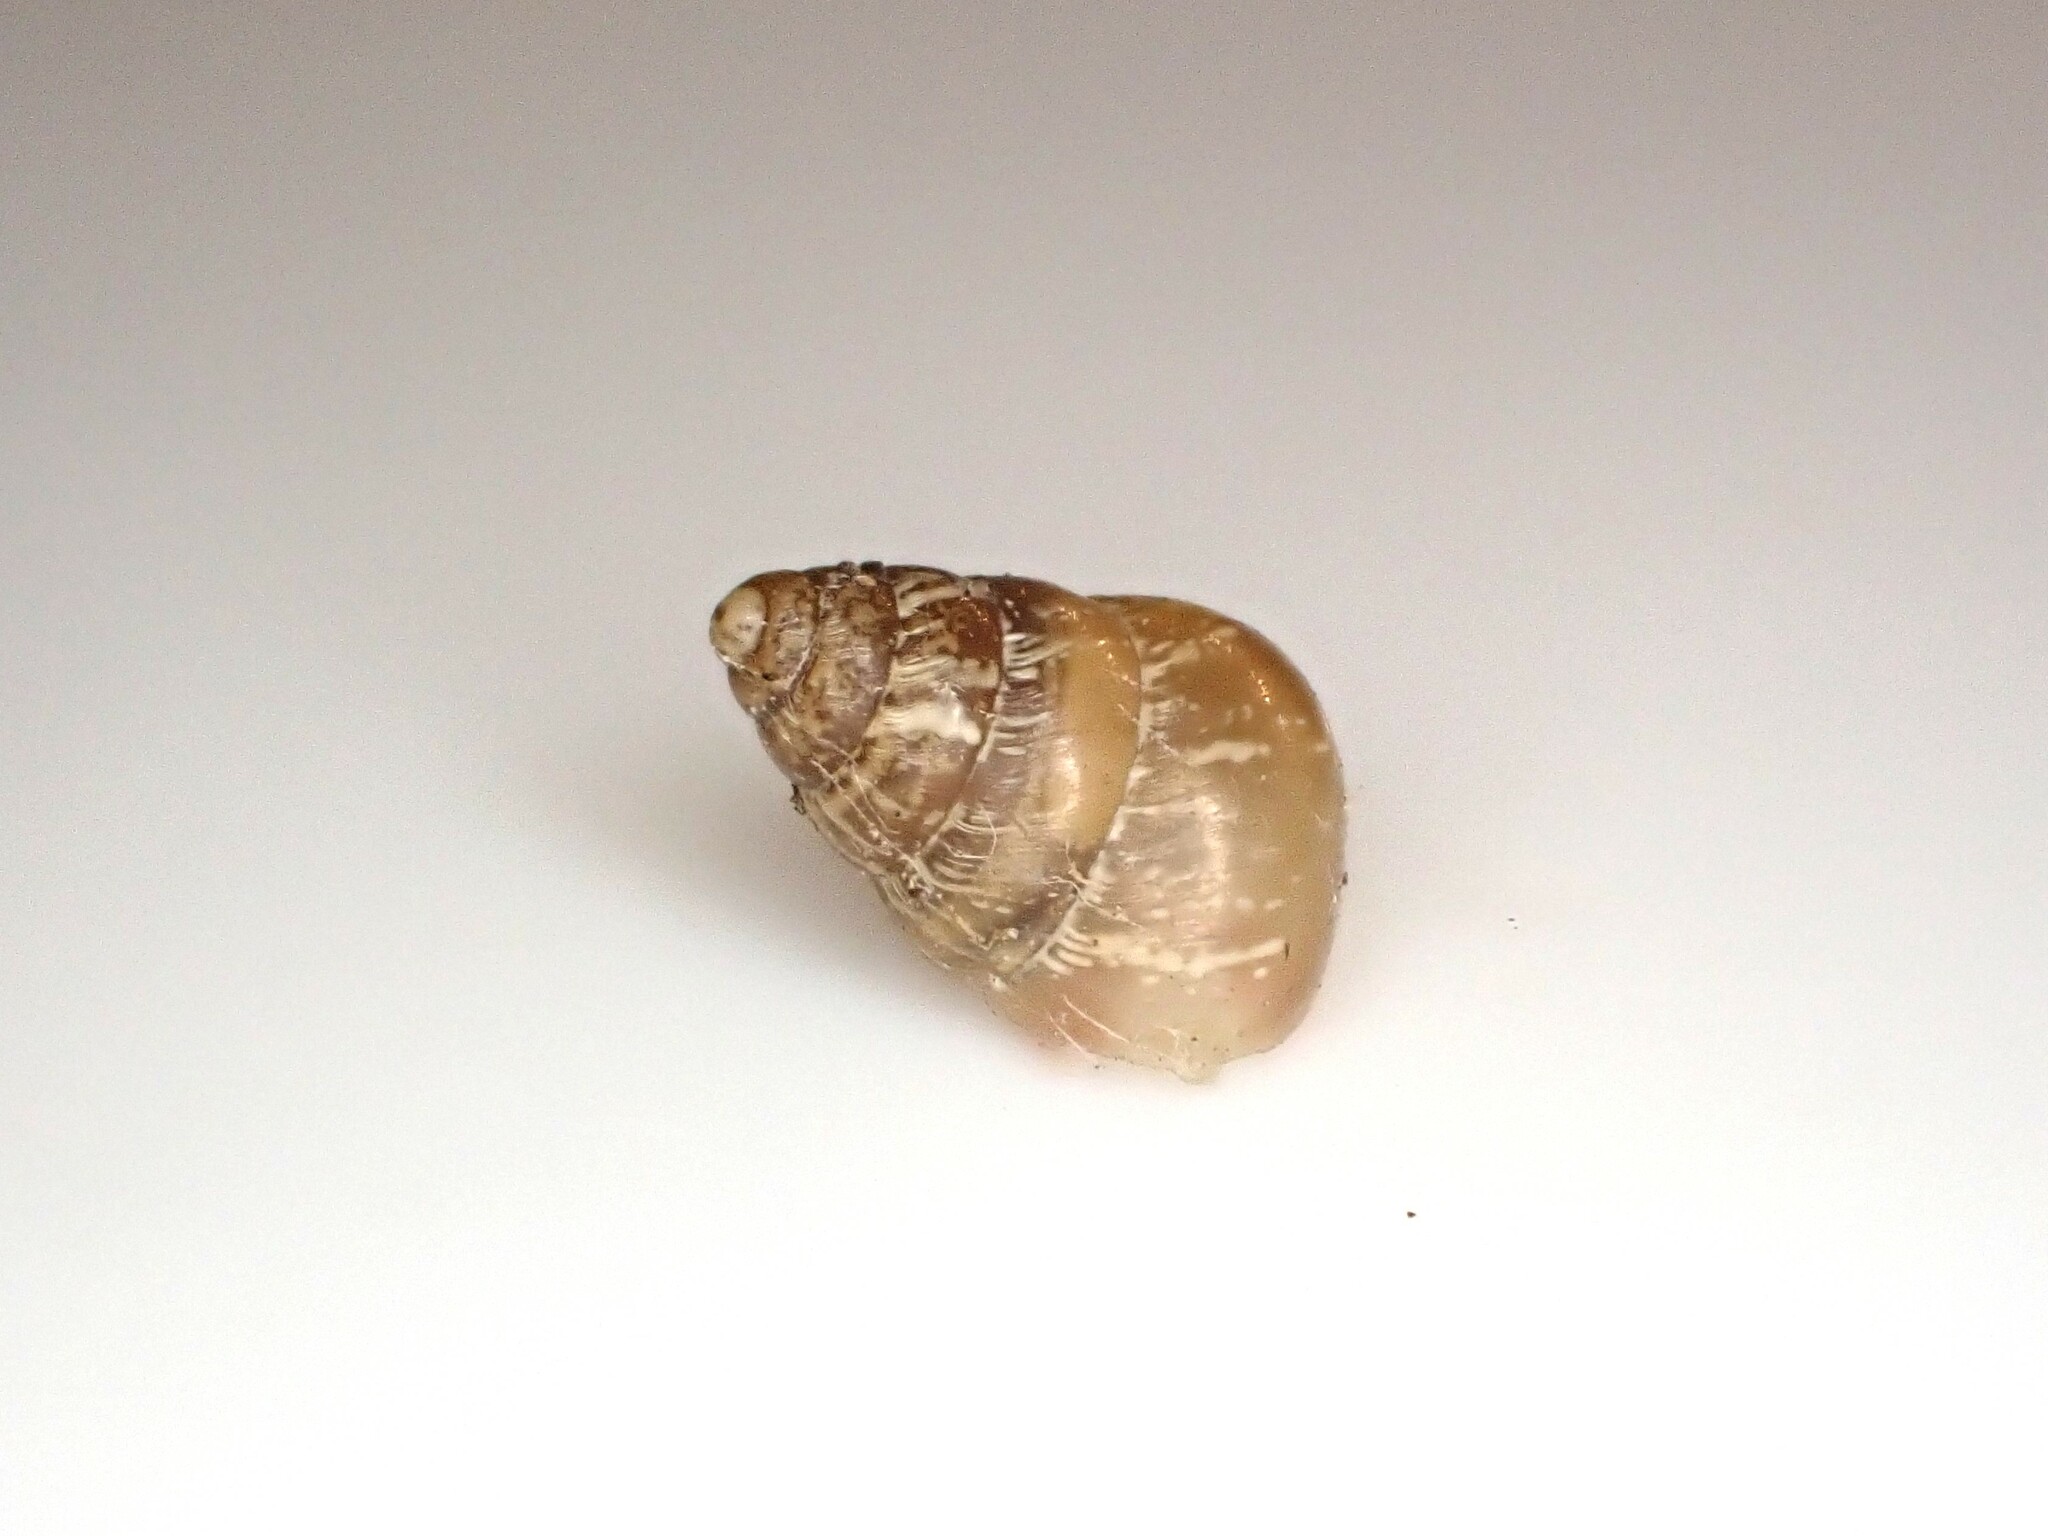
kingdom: Animalia
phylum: Mollusca
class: Gastropoda
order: Stylommatophora
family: Geomitridae
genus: Cochlicella
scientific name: Cochlicella barbara
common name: Potbellied helicellid
